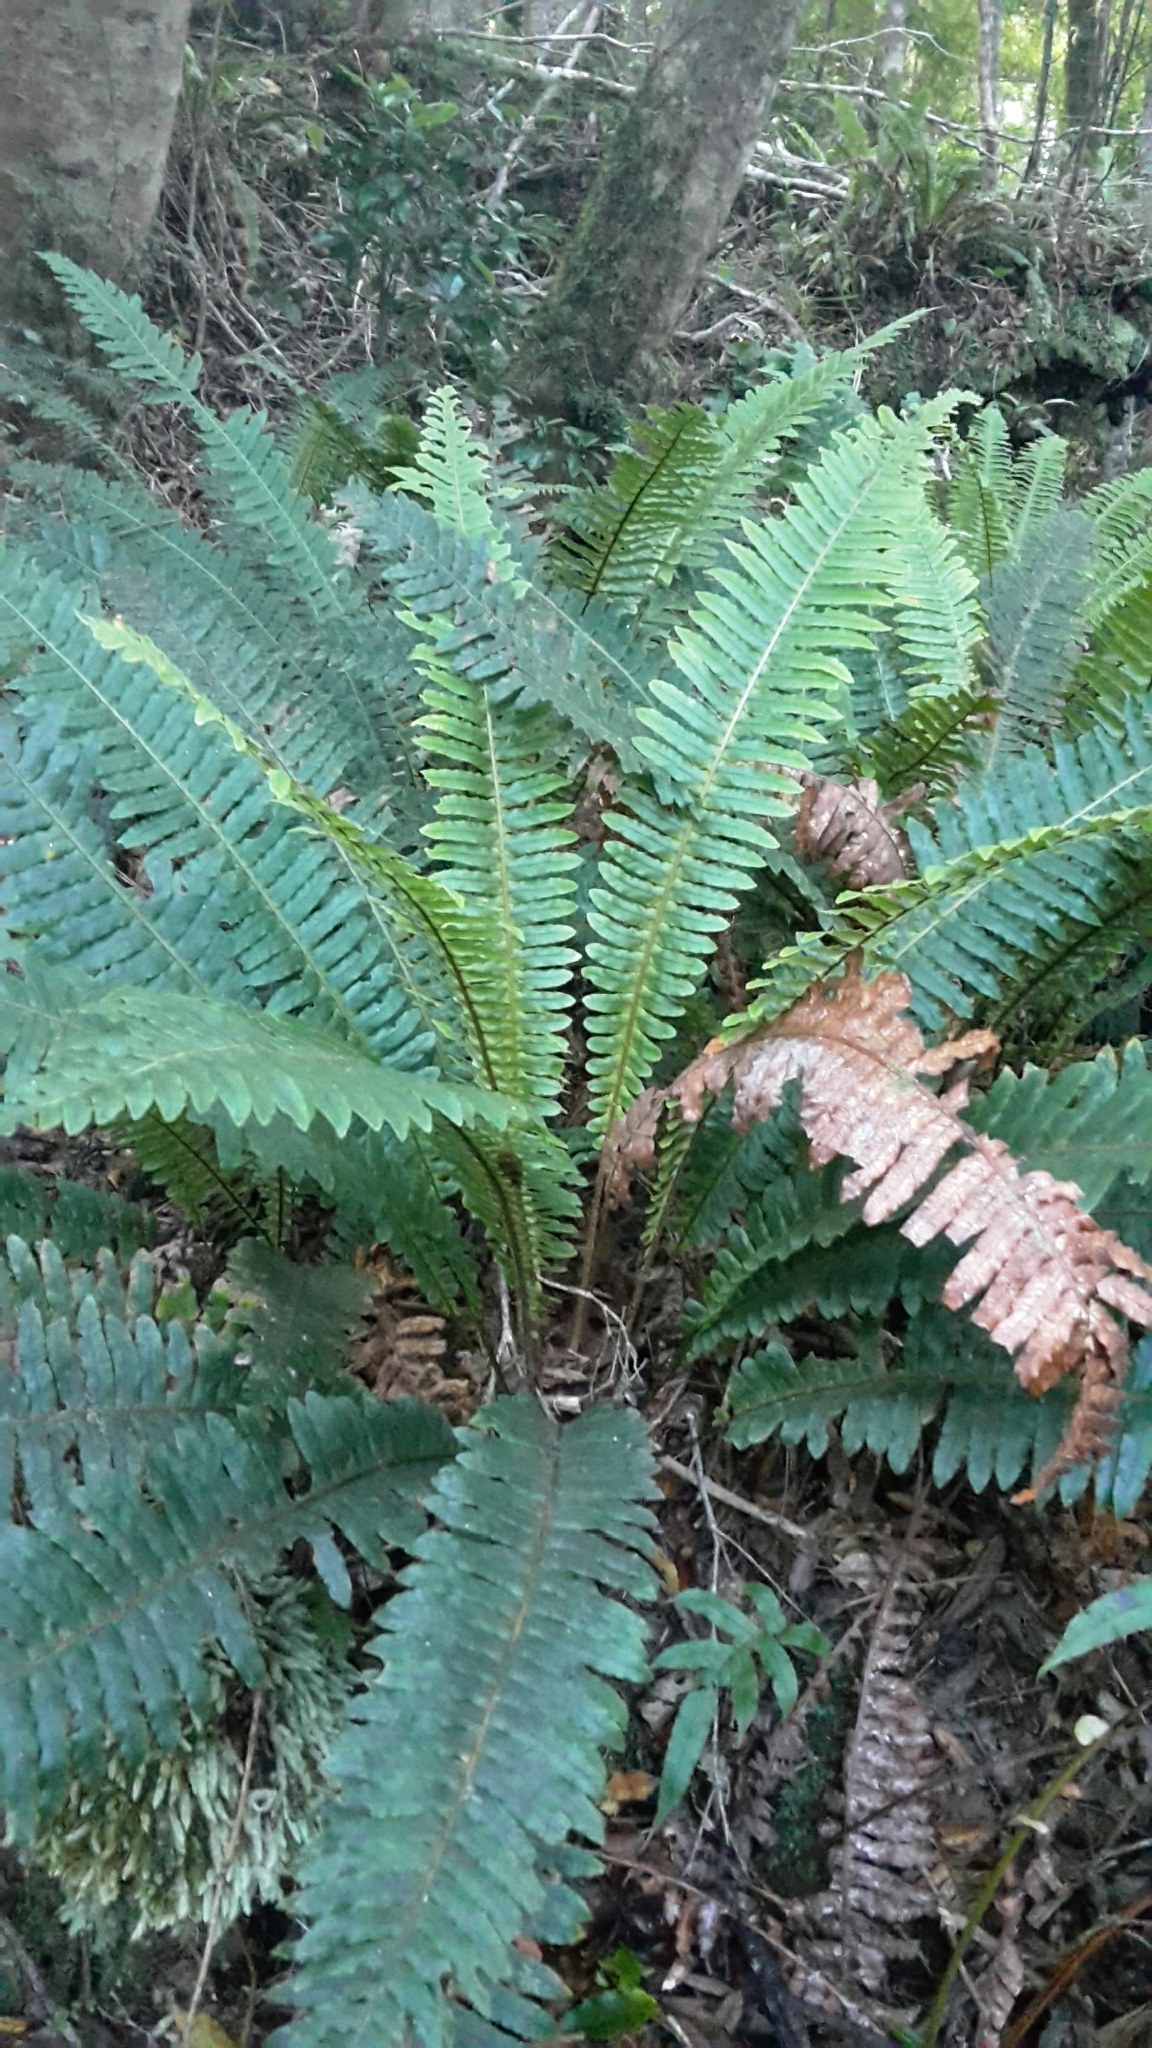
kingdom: Plantae
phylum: Tracheophyta
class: Polypodiopsida
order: Polypodiales
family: Blechnaceae
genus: Lomaria
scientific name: Lomaria discolor
